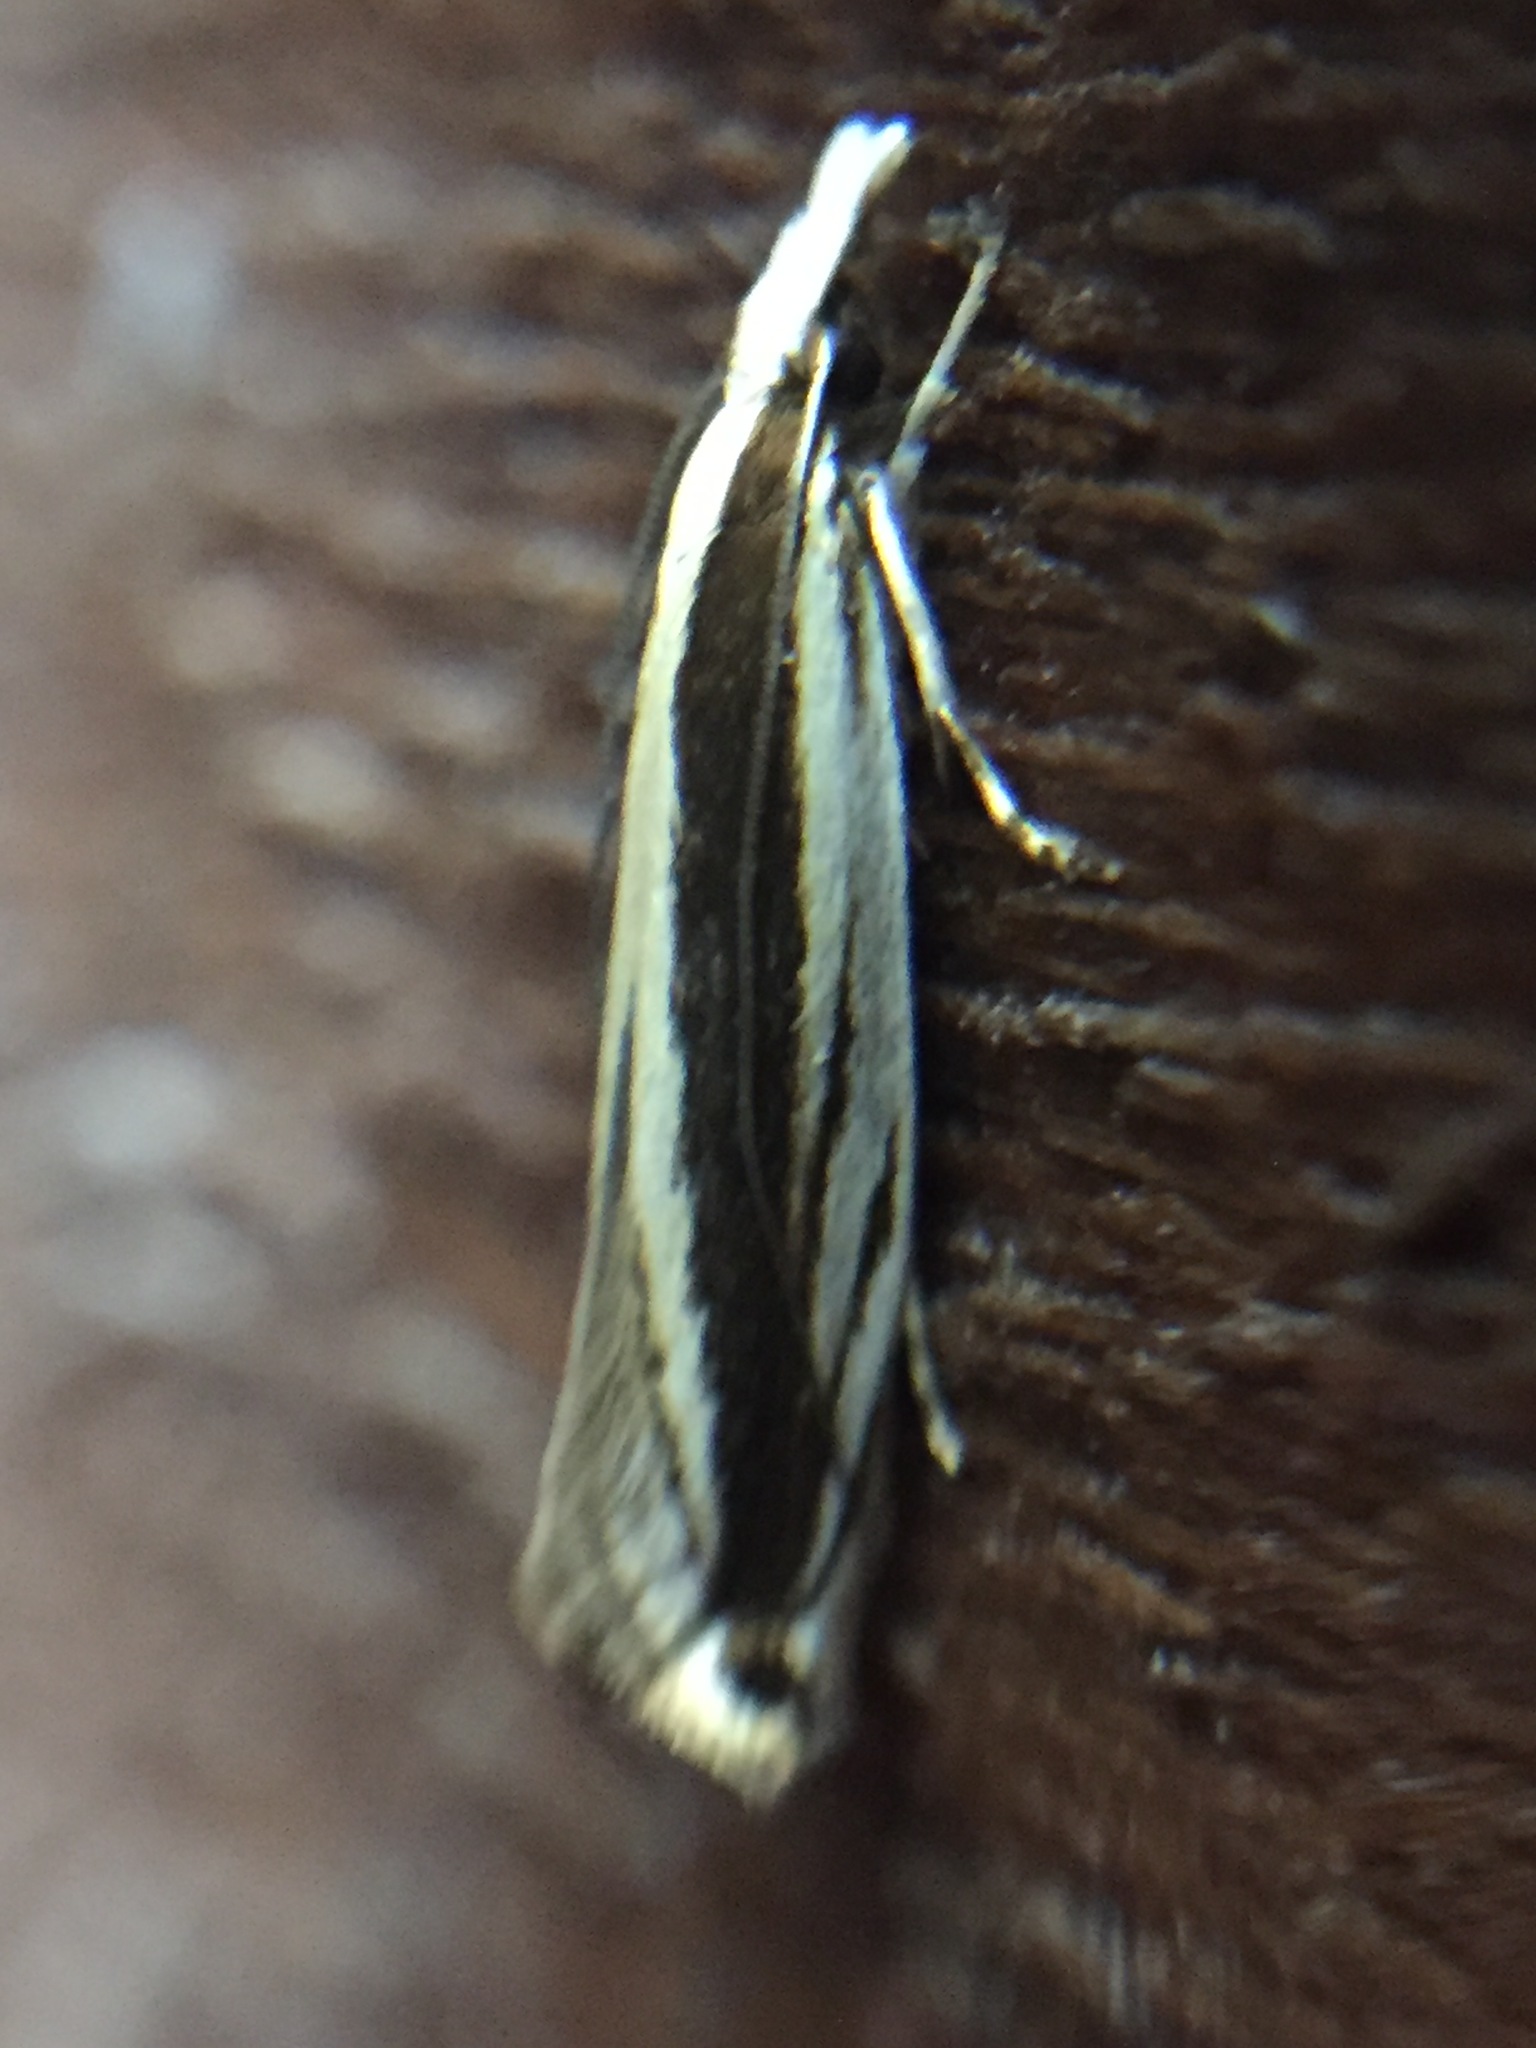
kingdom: Animalia
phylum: Arthropoda
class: Insecta
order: Lepidoptera
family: Tineidae
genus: Erechthias
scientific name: Erechthias stilbella
